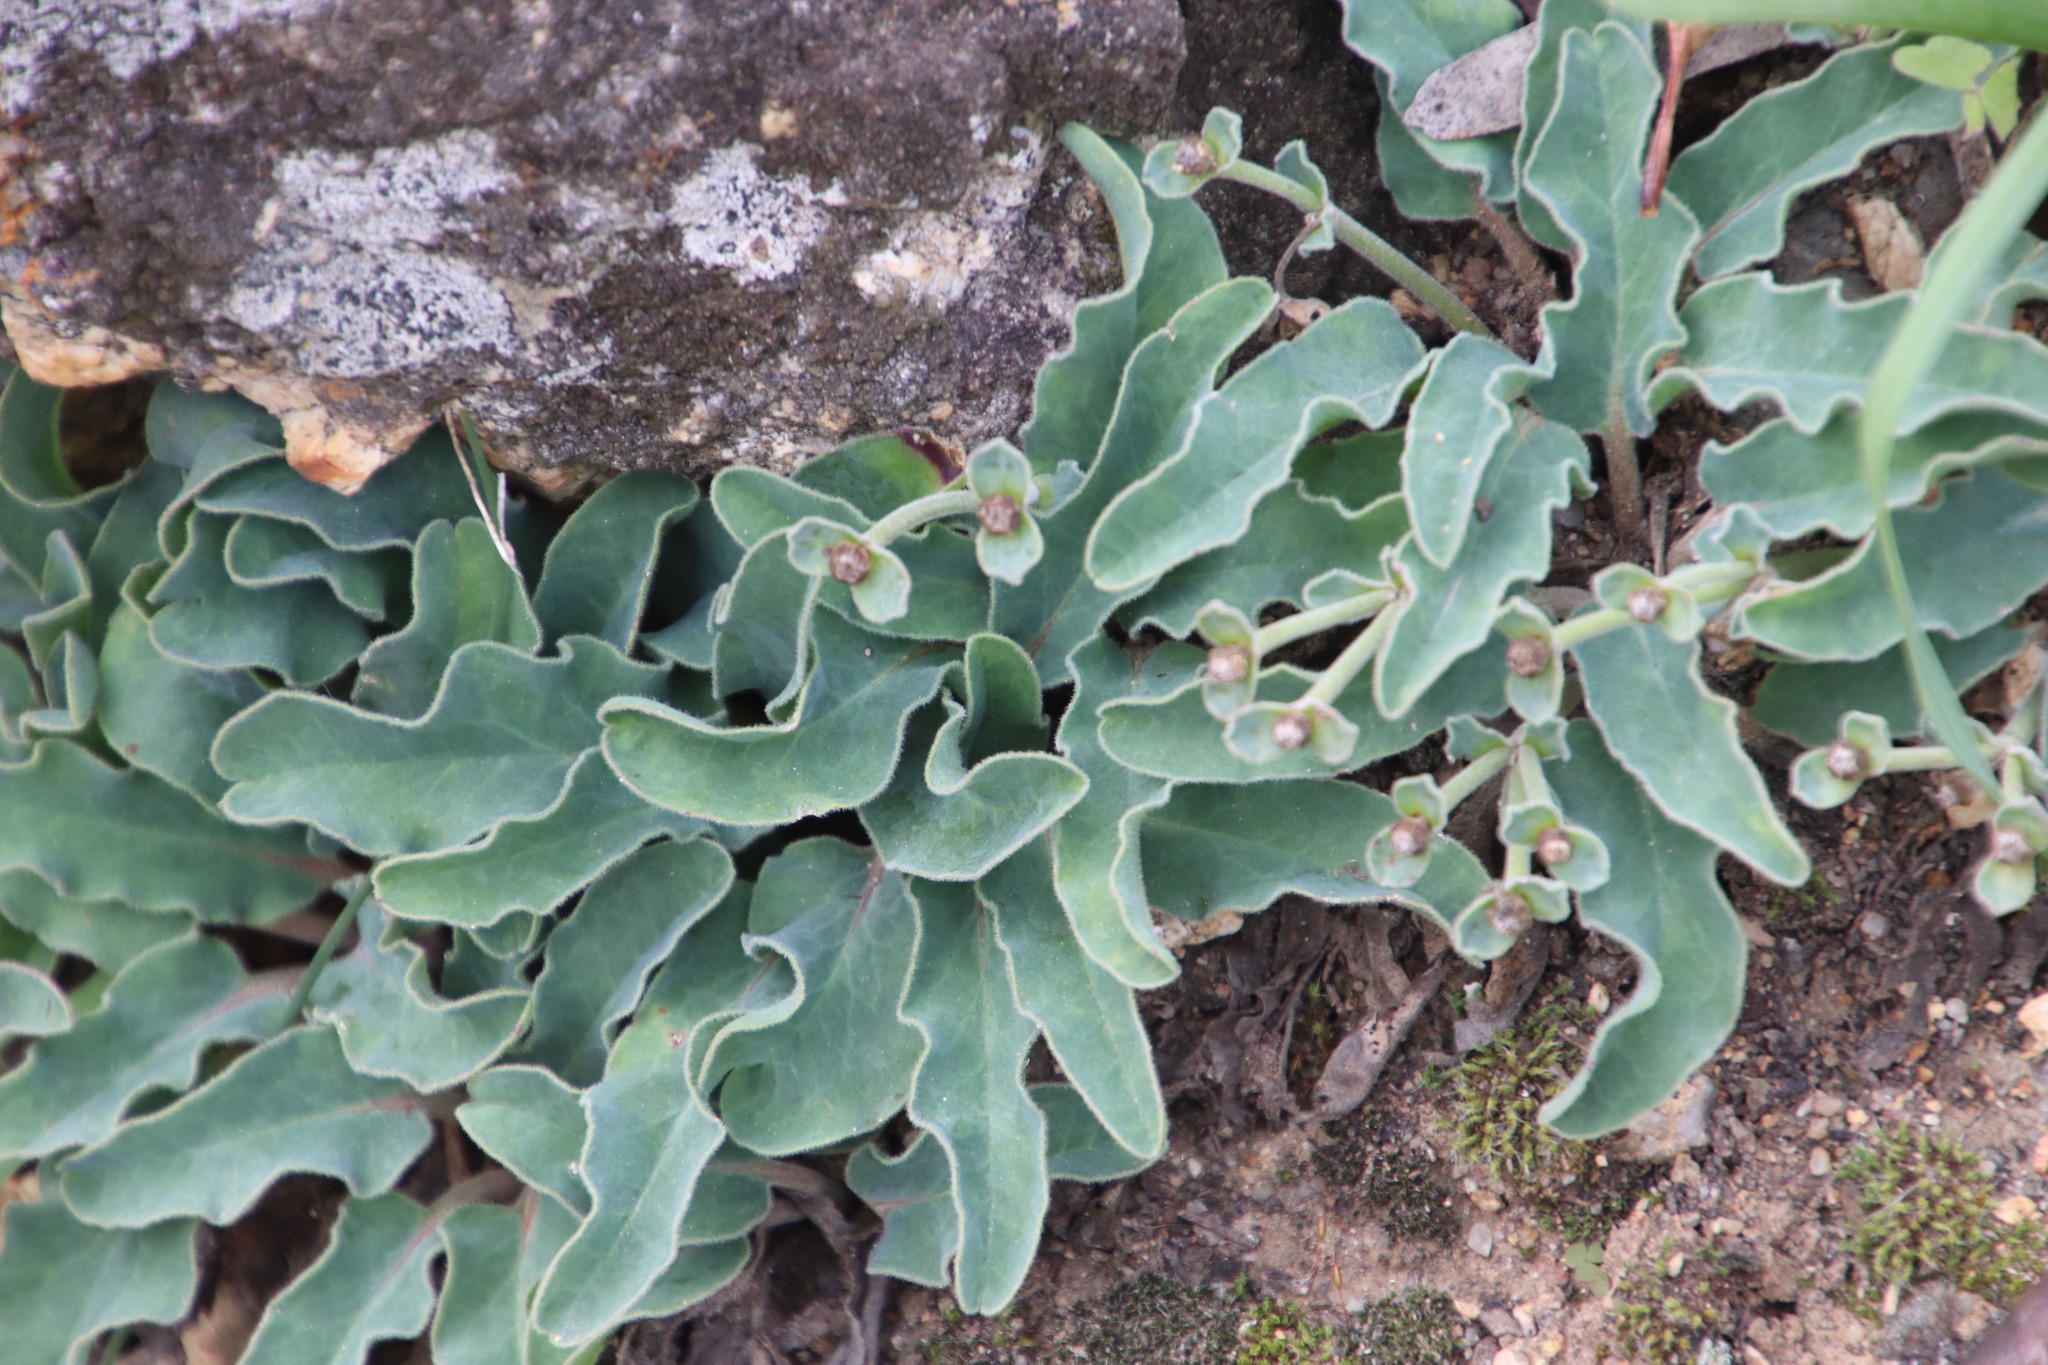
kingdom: Plantae
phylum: Tracheophyta
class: Magnoliopsida
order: Malpighiales
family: Euphorbiaceae
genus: Euphorbia
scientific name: Euphorbia tuberosa
